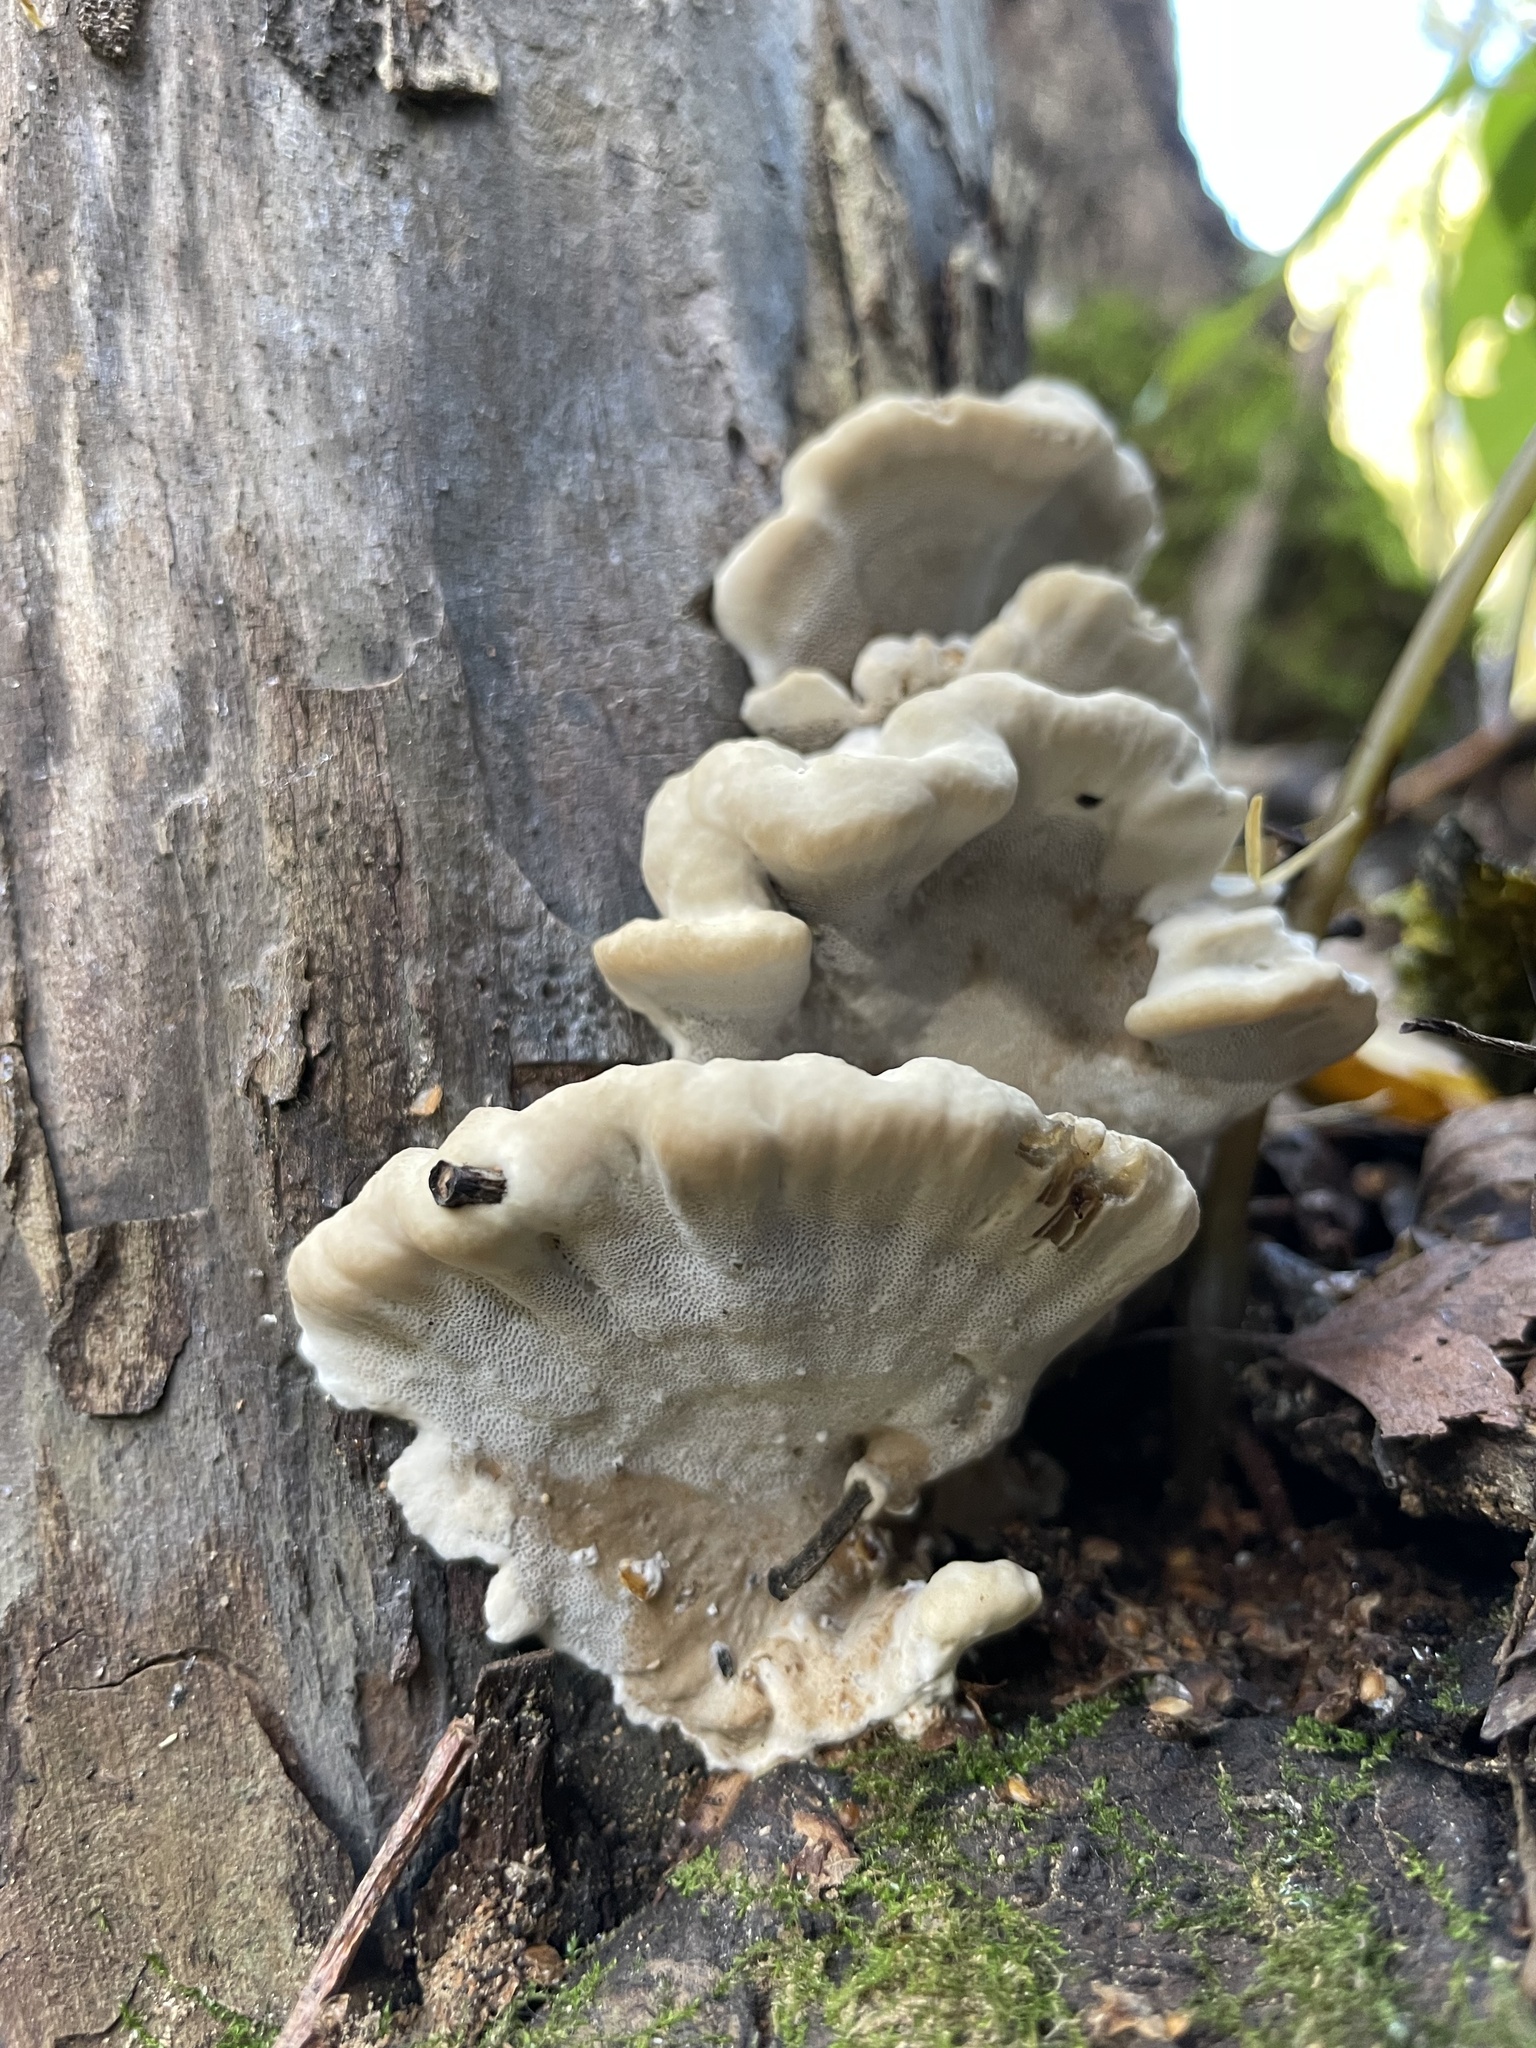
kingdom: Fungi
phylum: Basidiomycota
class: Agaricomycetes
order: Polyporales
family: Phanerochaetaceae
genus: Bjerkandera
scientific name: Bjerkandera adusta
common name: Smoky bracket
